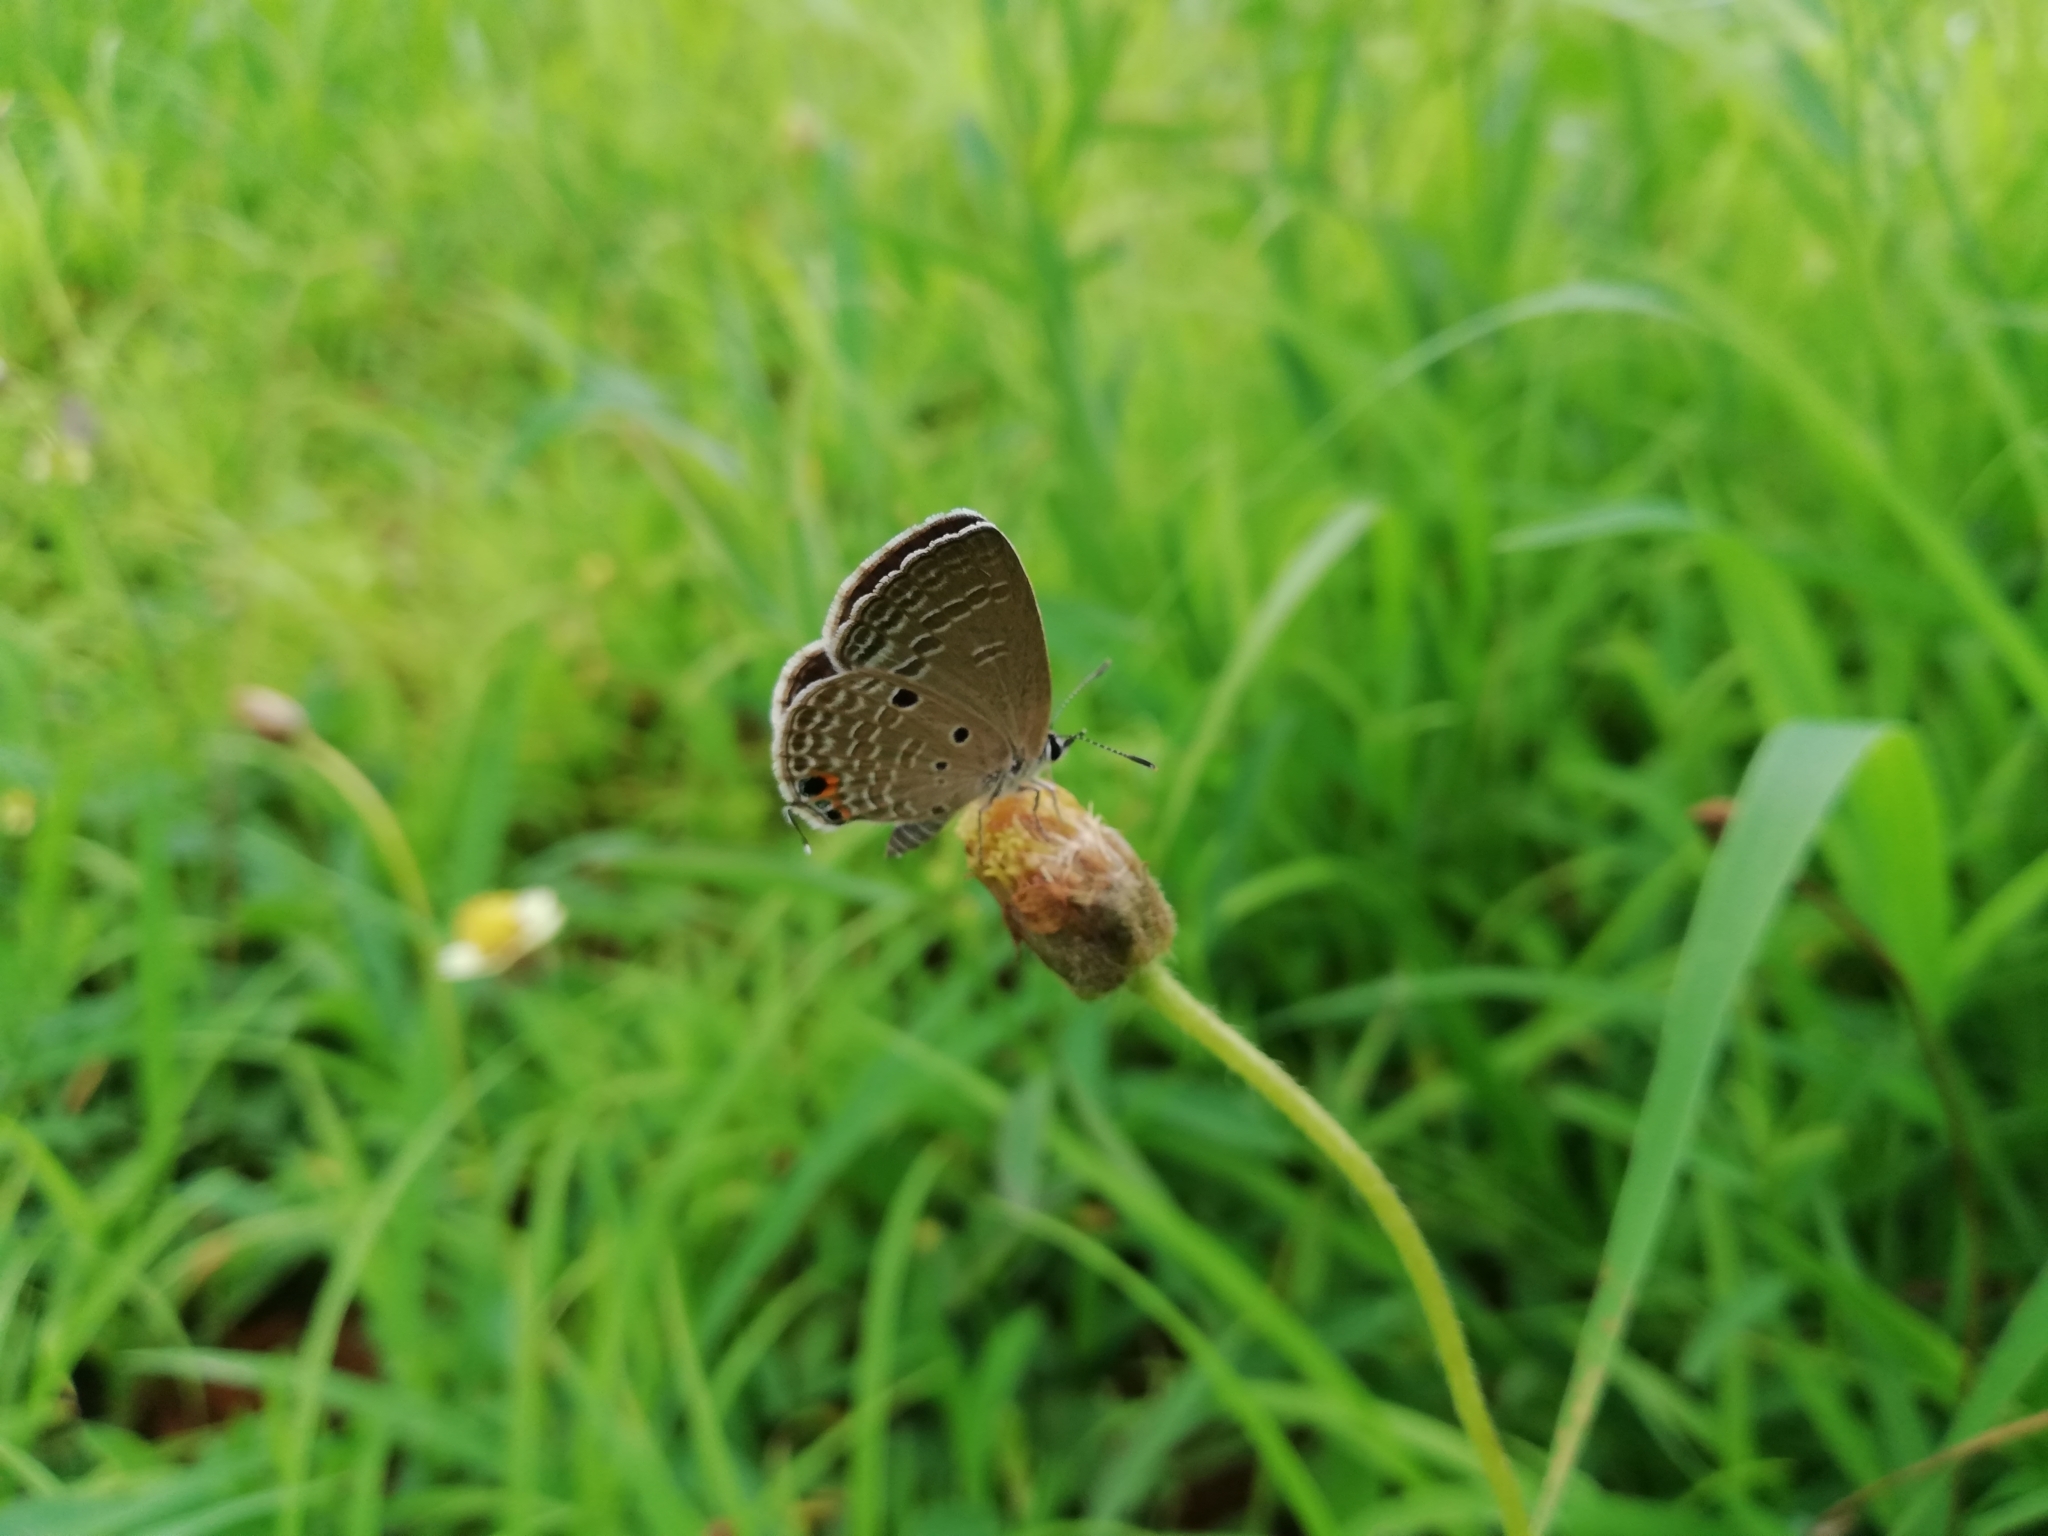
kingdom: Animalia
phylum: Arthropoda
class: Insecta
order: Lepidoptera
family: Lycaenidae
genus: Luthrodes
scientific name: Luthrodes pandava
